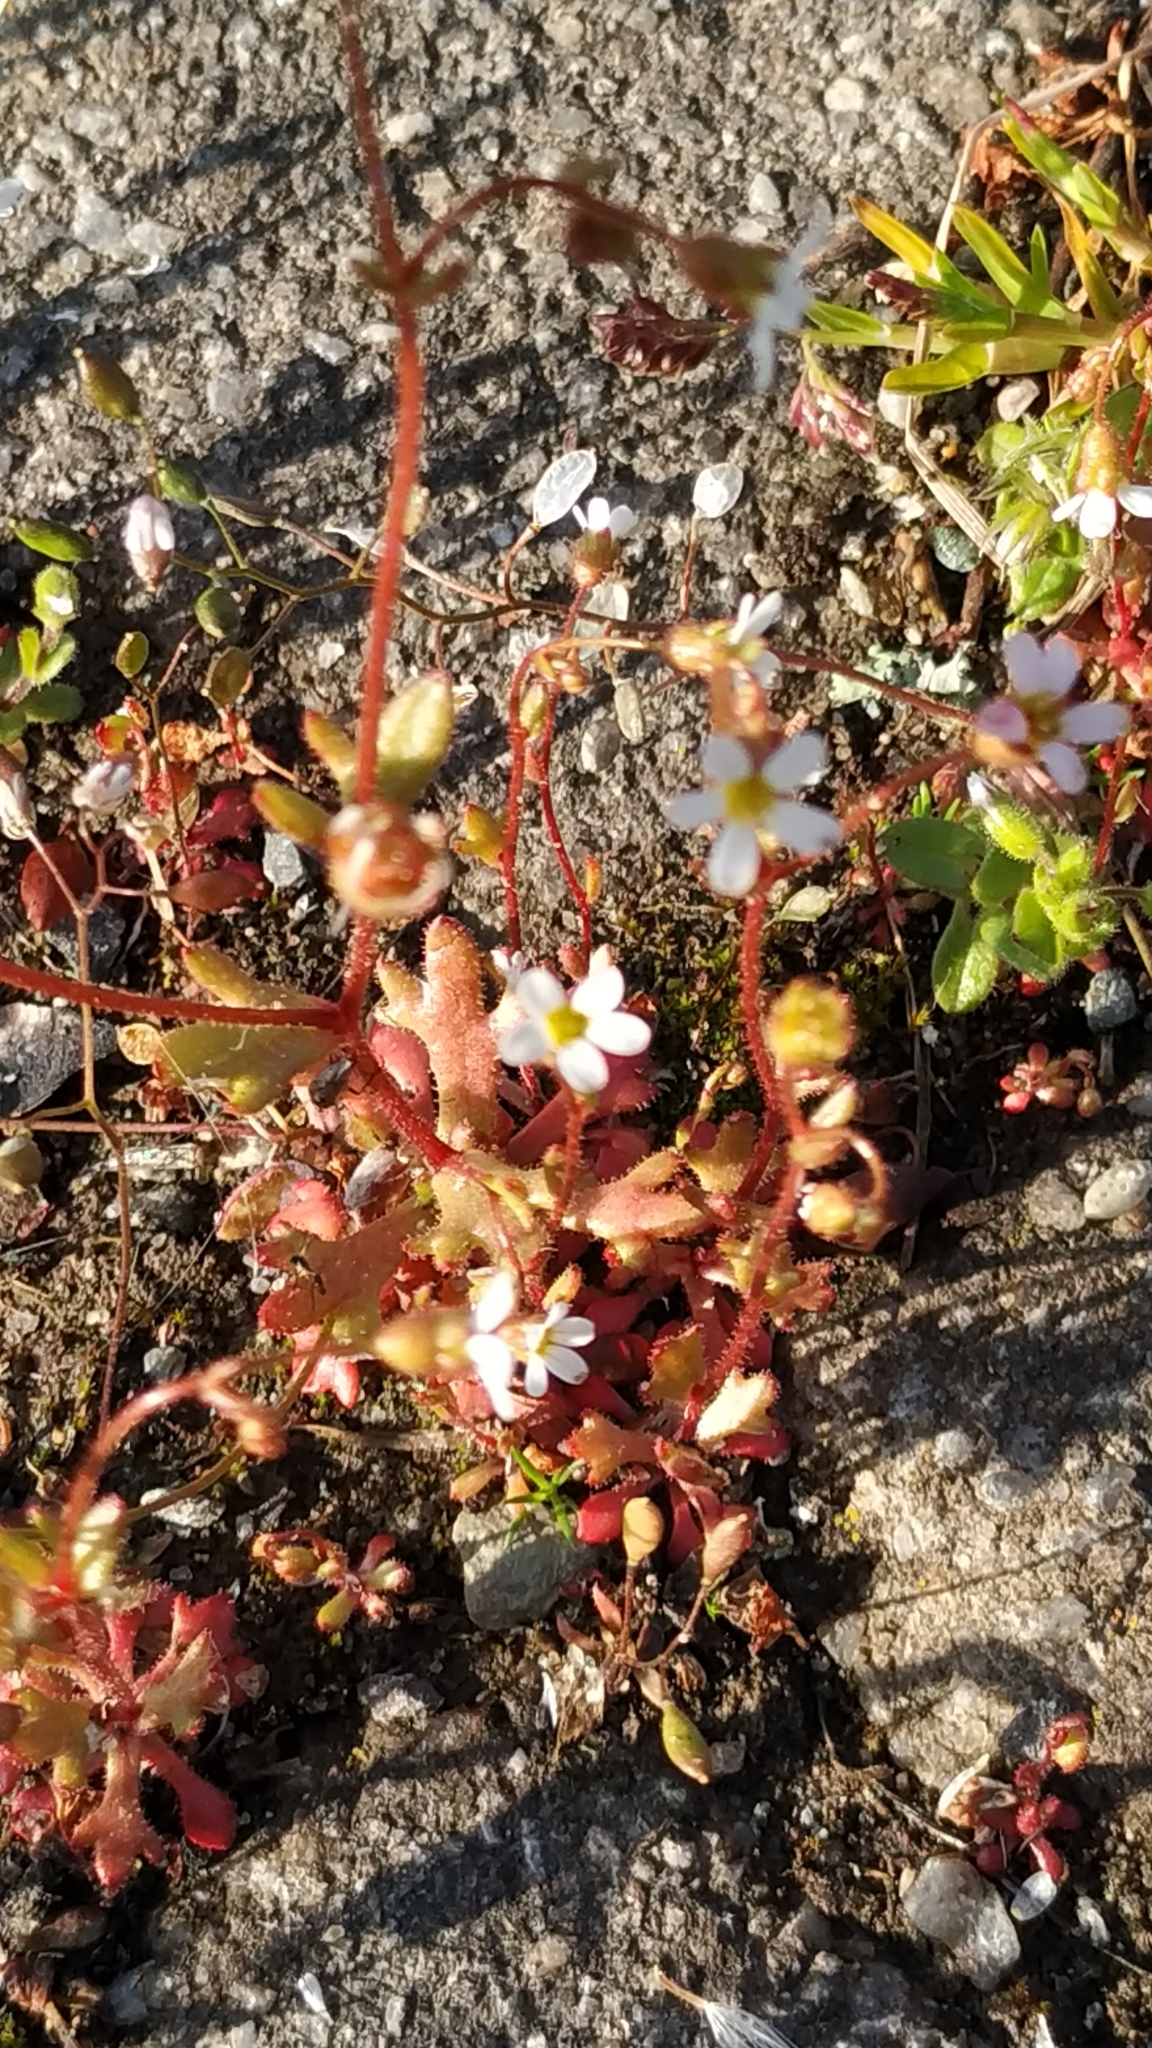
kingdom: Plantae
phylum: Tracheophyta
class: Magnoliopsida
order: Saxifragales
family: Saxifragaceae
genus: Saxifraga
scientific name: Saxifraga tridactylites
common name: Rue-leaved saxifrage
